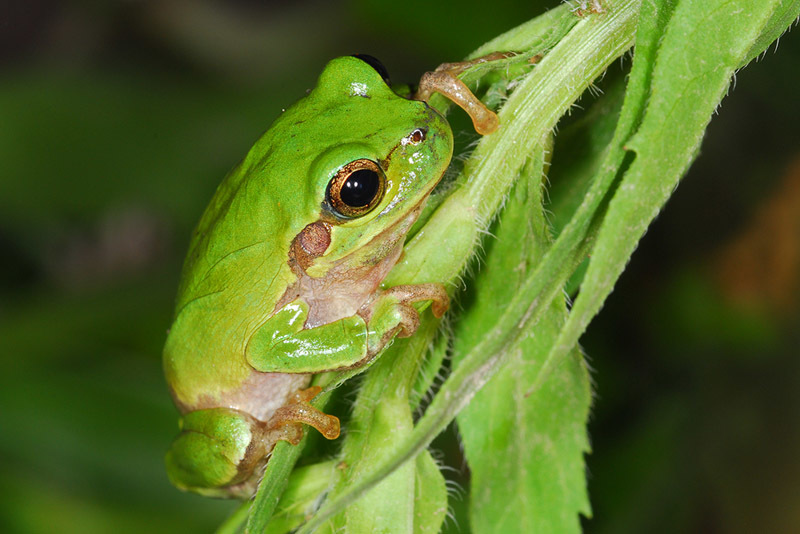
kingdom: Animalia
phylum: Chordata
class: Amphibia
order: Anura
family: Hylidae
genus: Dryophytes
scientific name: Dryophytes japonicus
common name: Japanese treefrog
